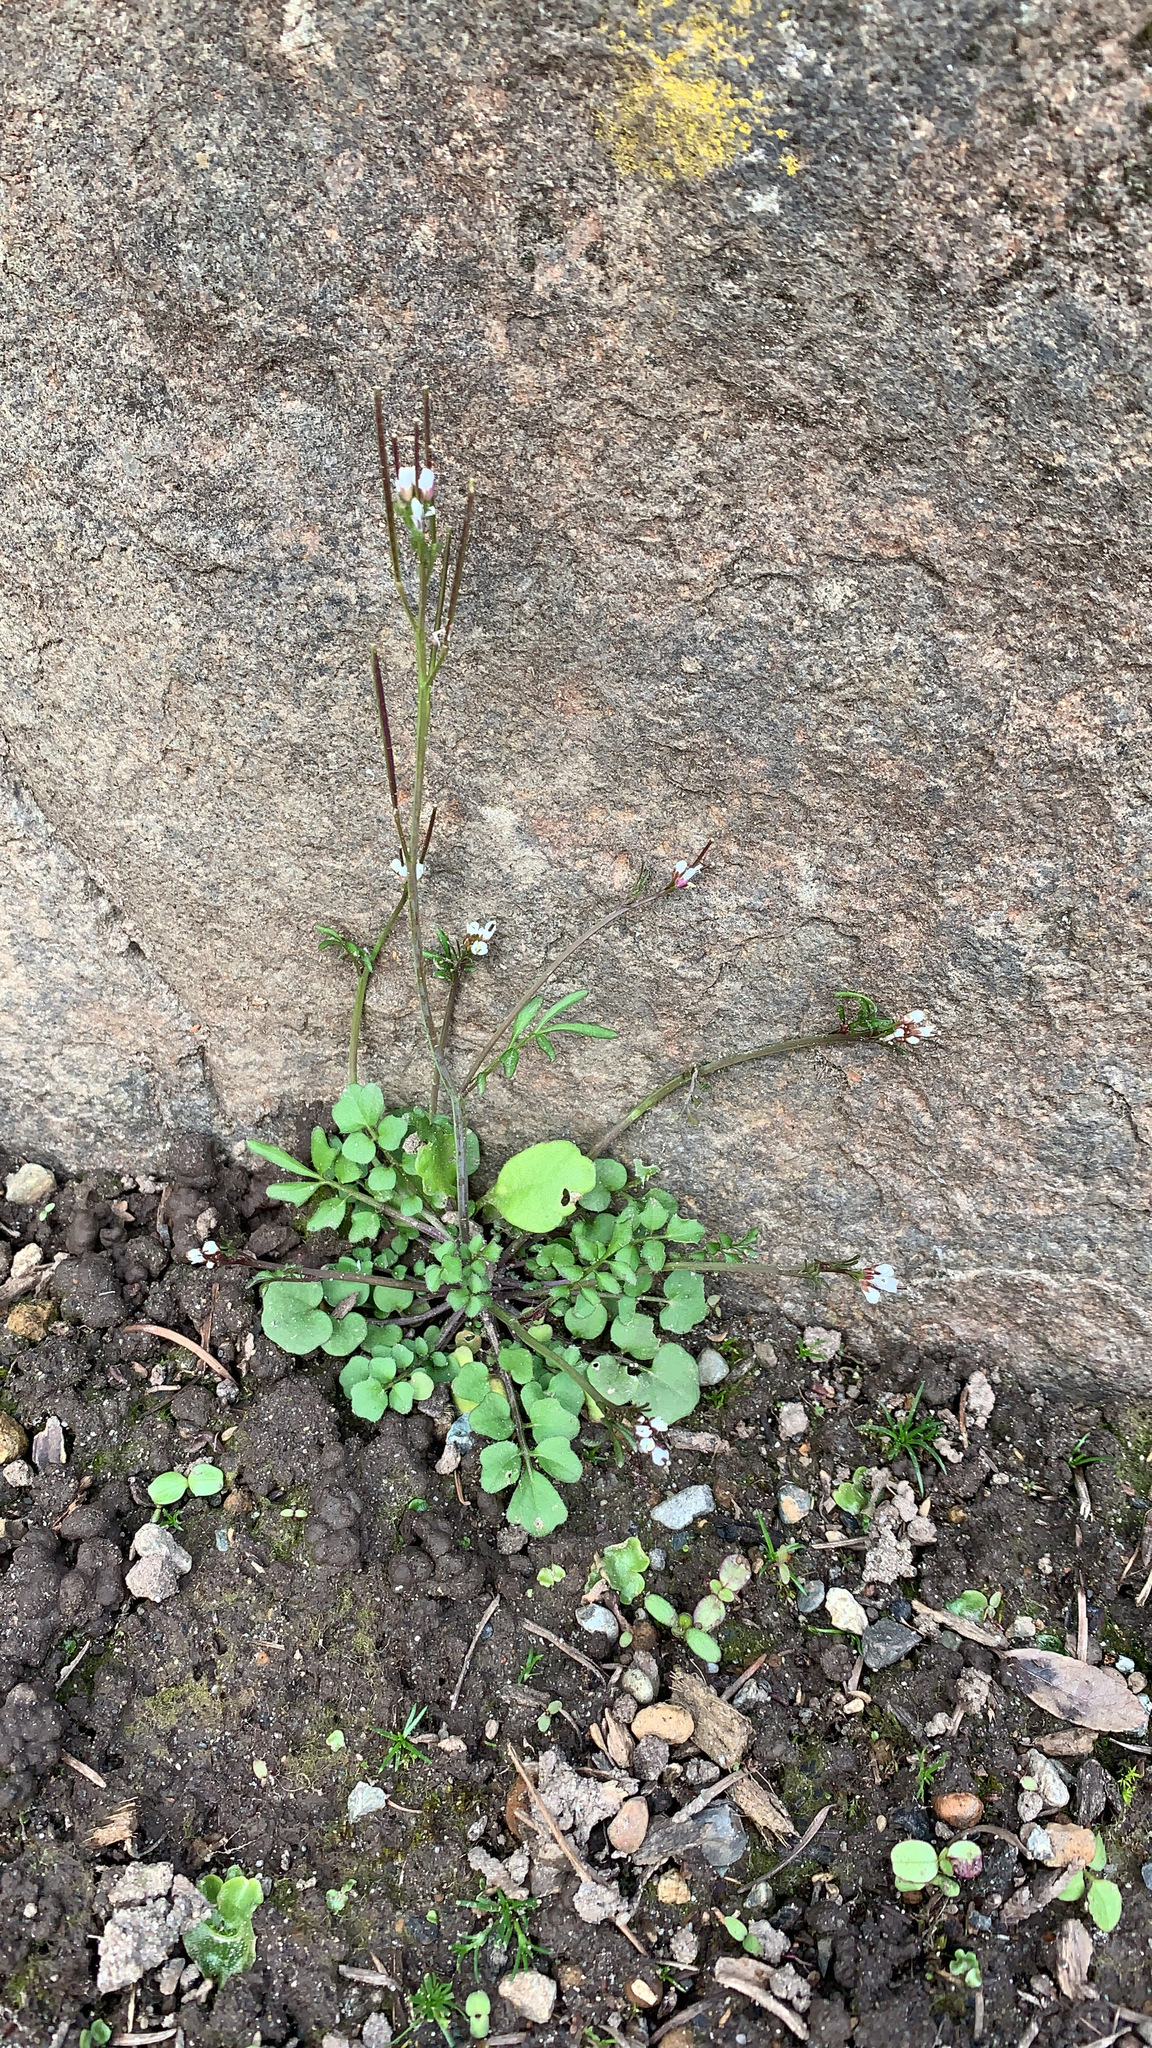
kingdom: Plantae
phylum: Tracheophyta
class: Magnoliopsida
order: Brassicales
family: Brassicaceae
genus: Cardamine
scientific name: Cardamine hirsuta
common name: Hairy bittercress
